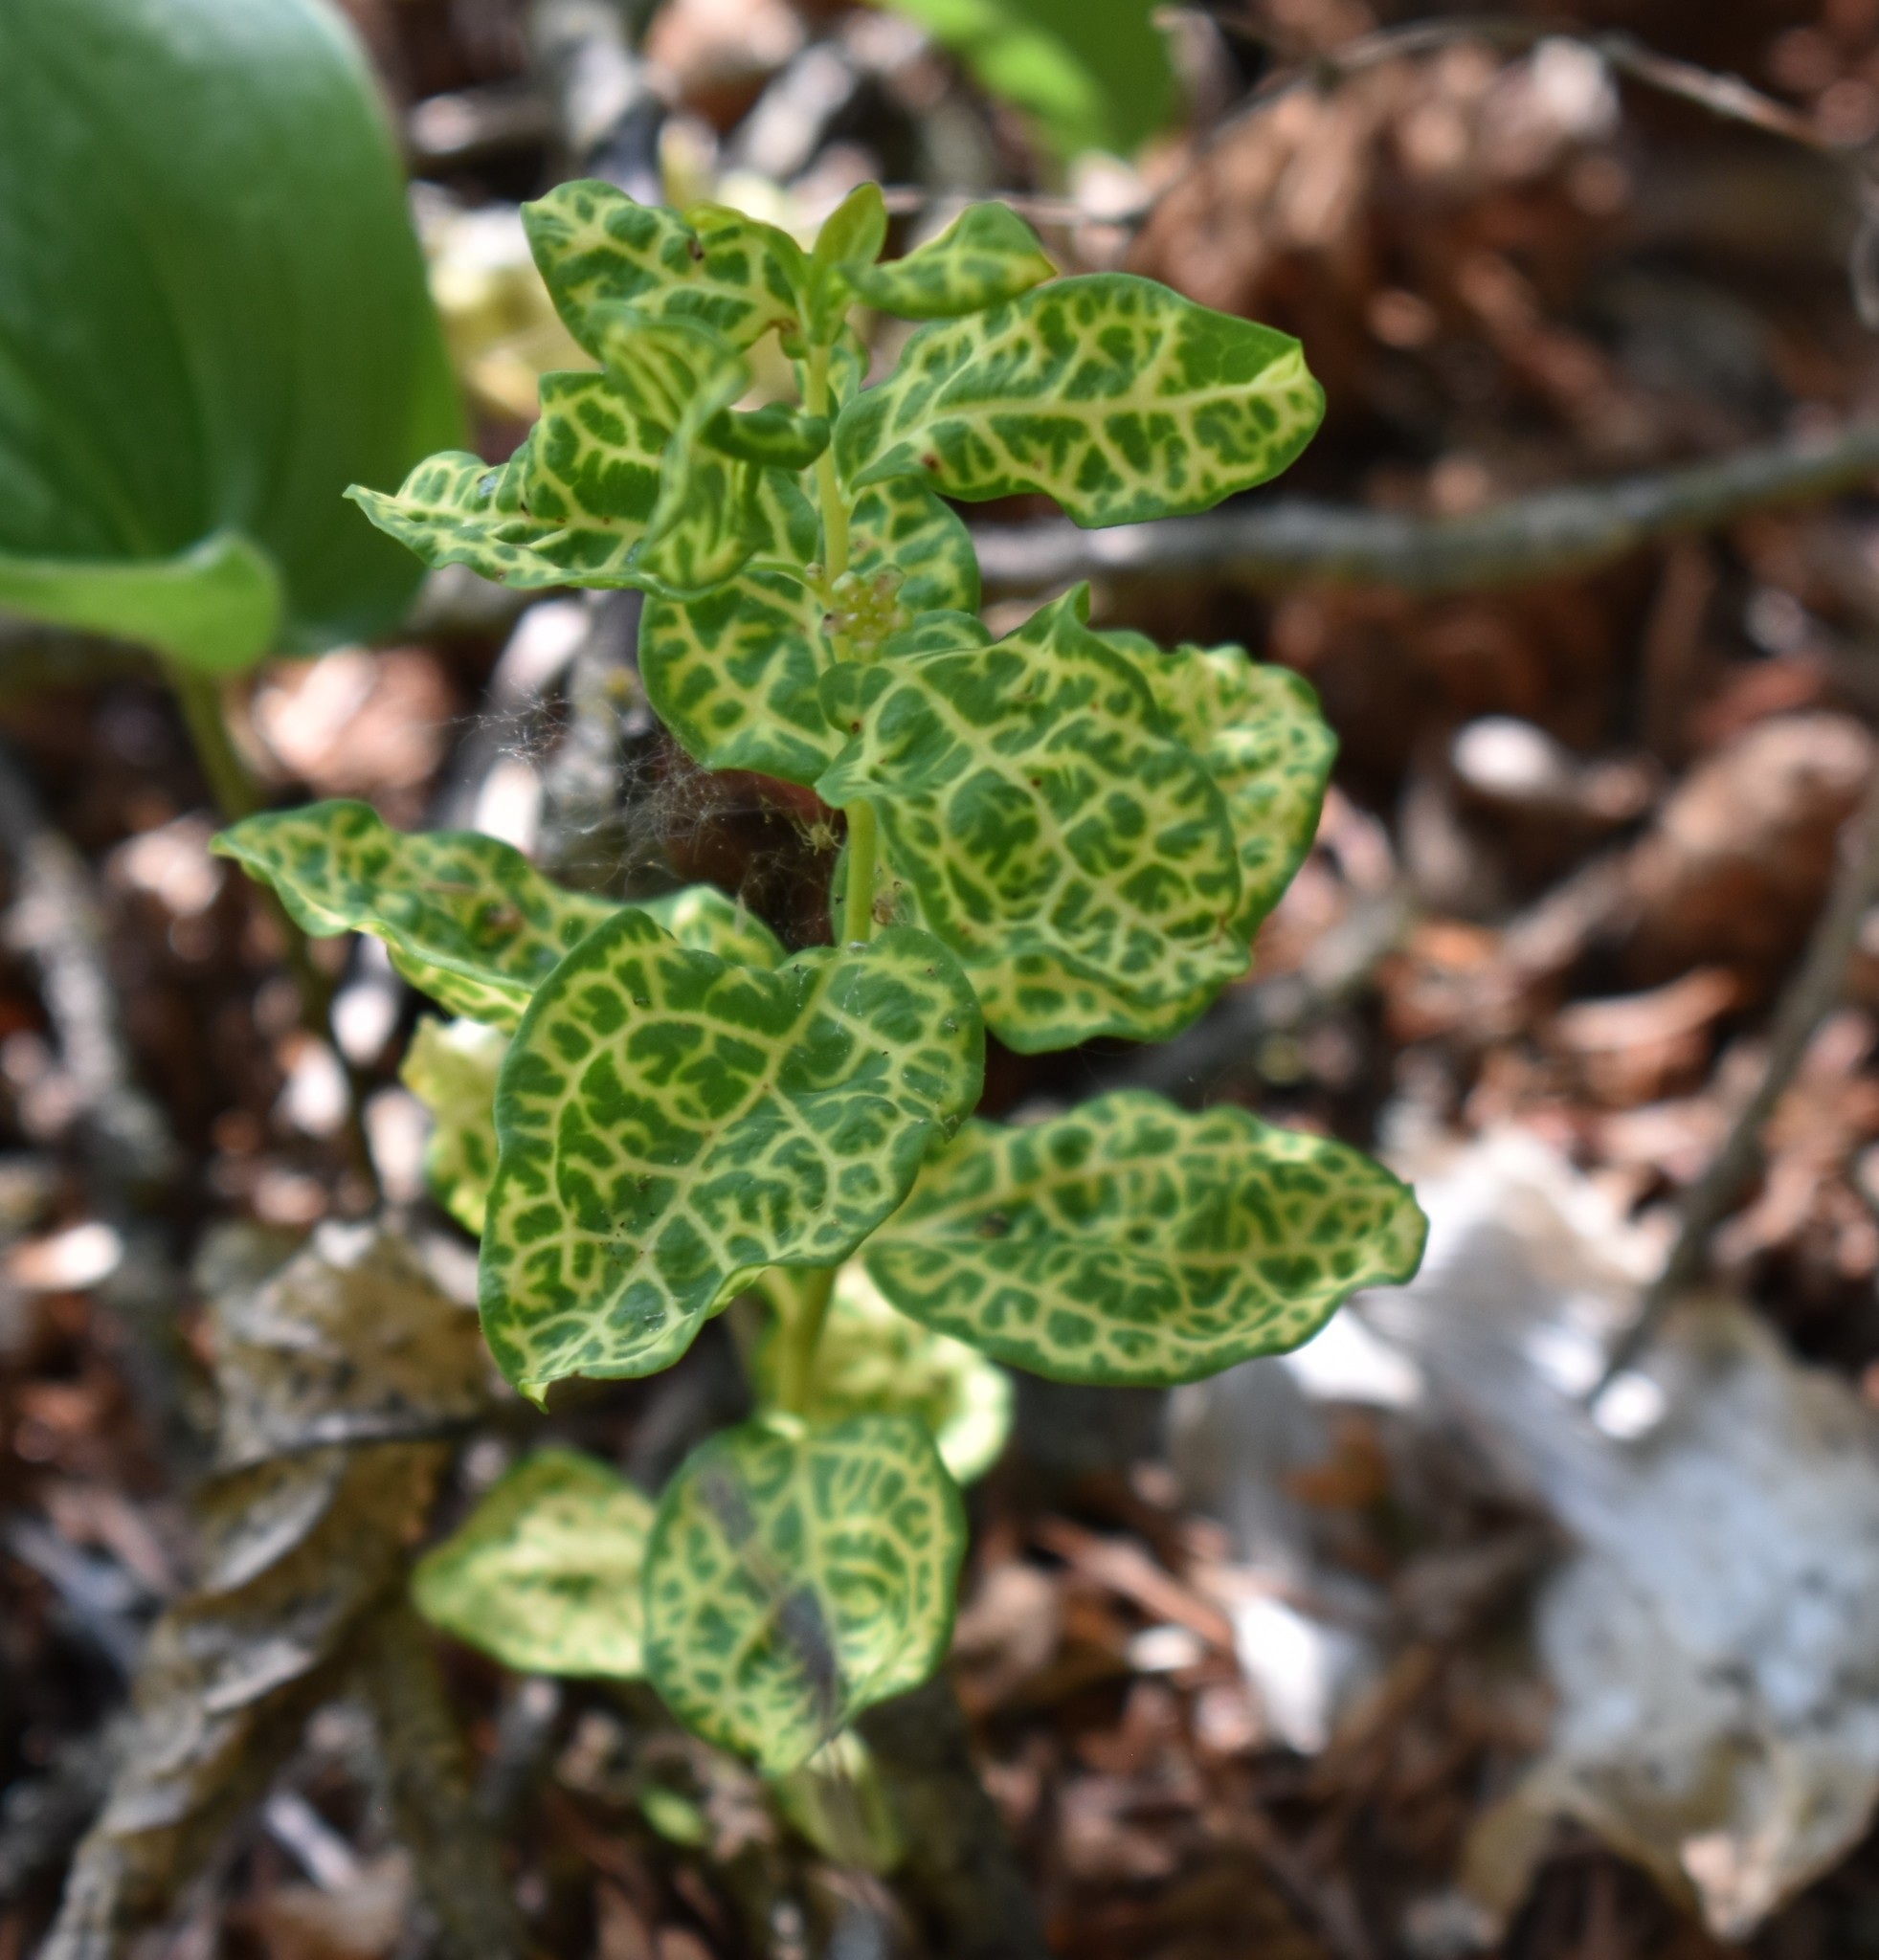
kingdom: Plantae
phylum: Tracheophyta
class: Magnoliopsida
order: Santalales
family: Comandraceae
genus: Geocaulon
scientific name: Geocaulon lividum
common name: Earthberry
